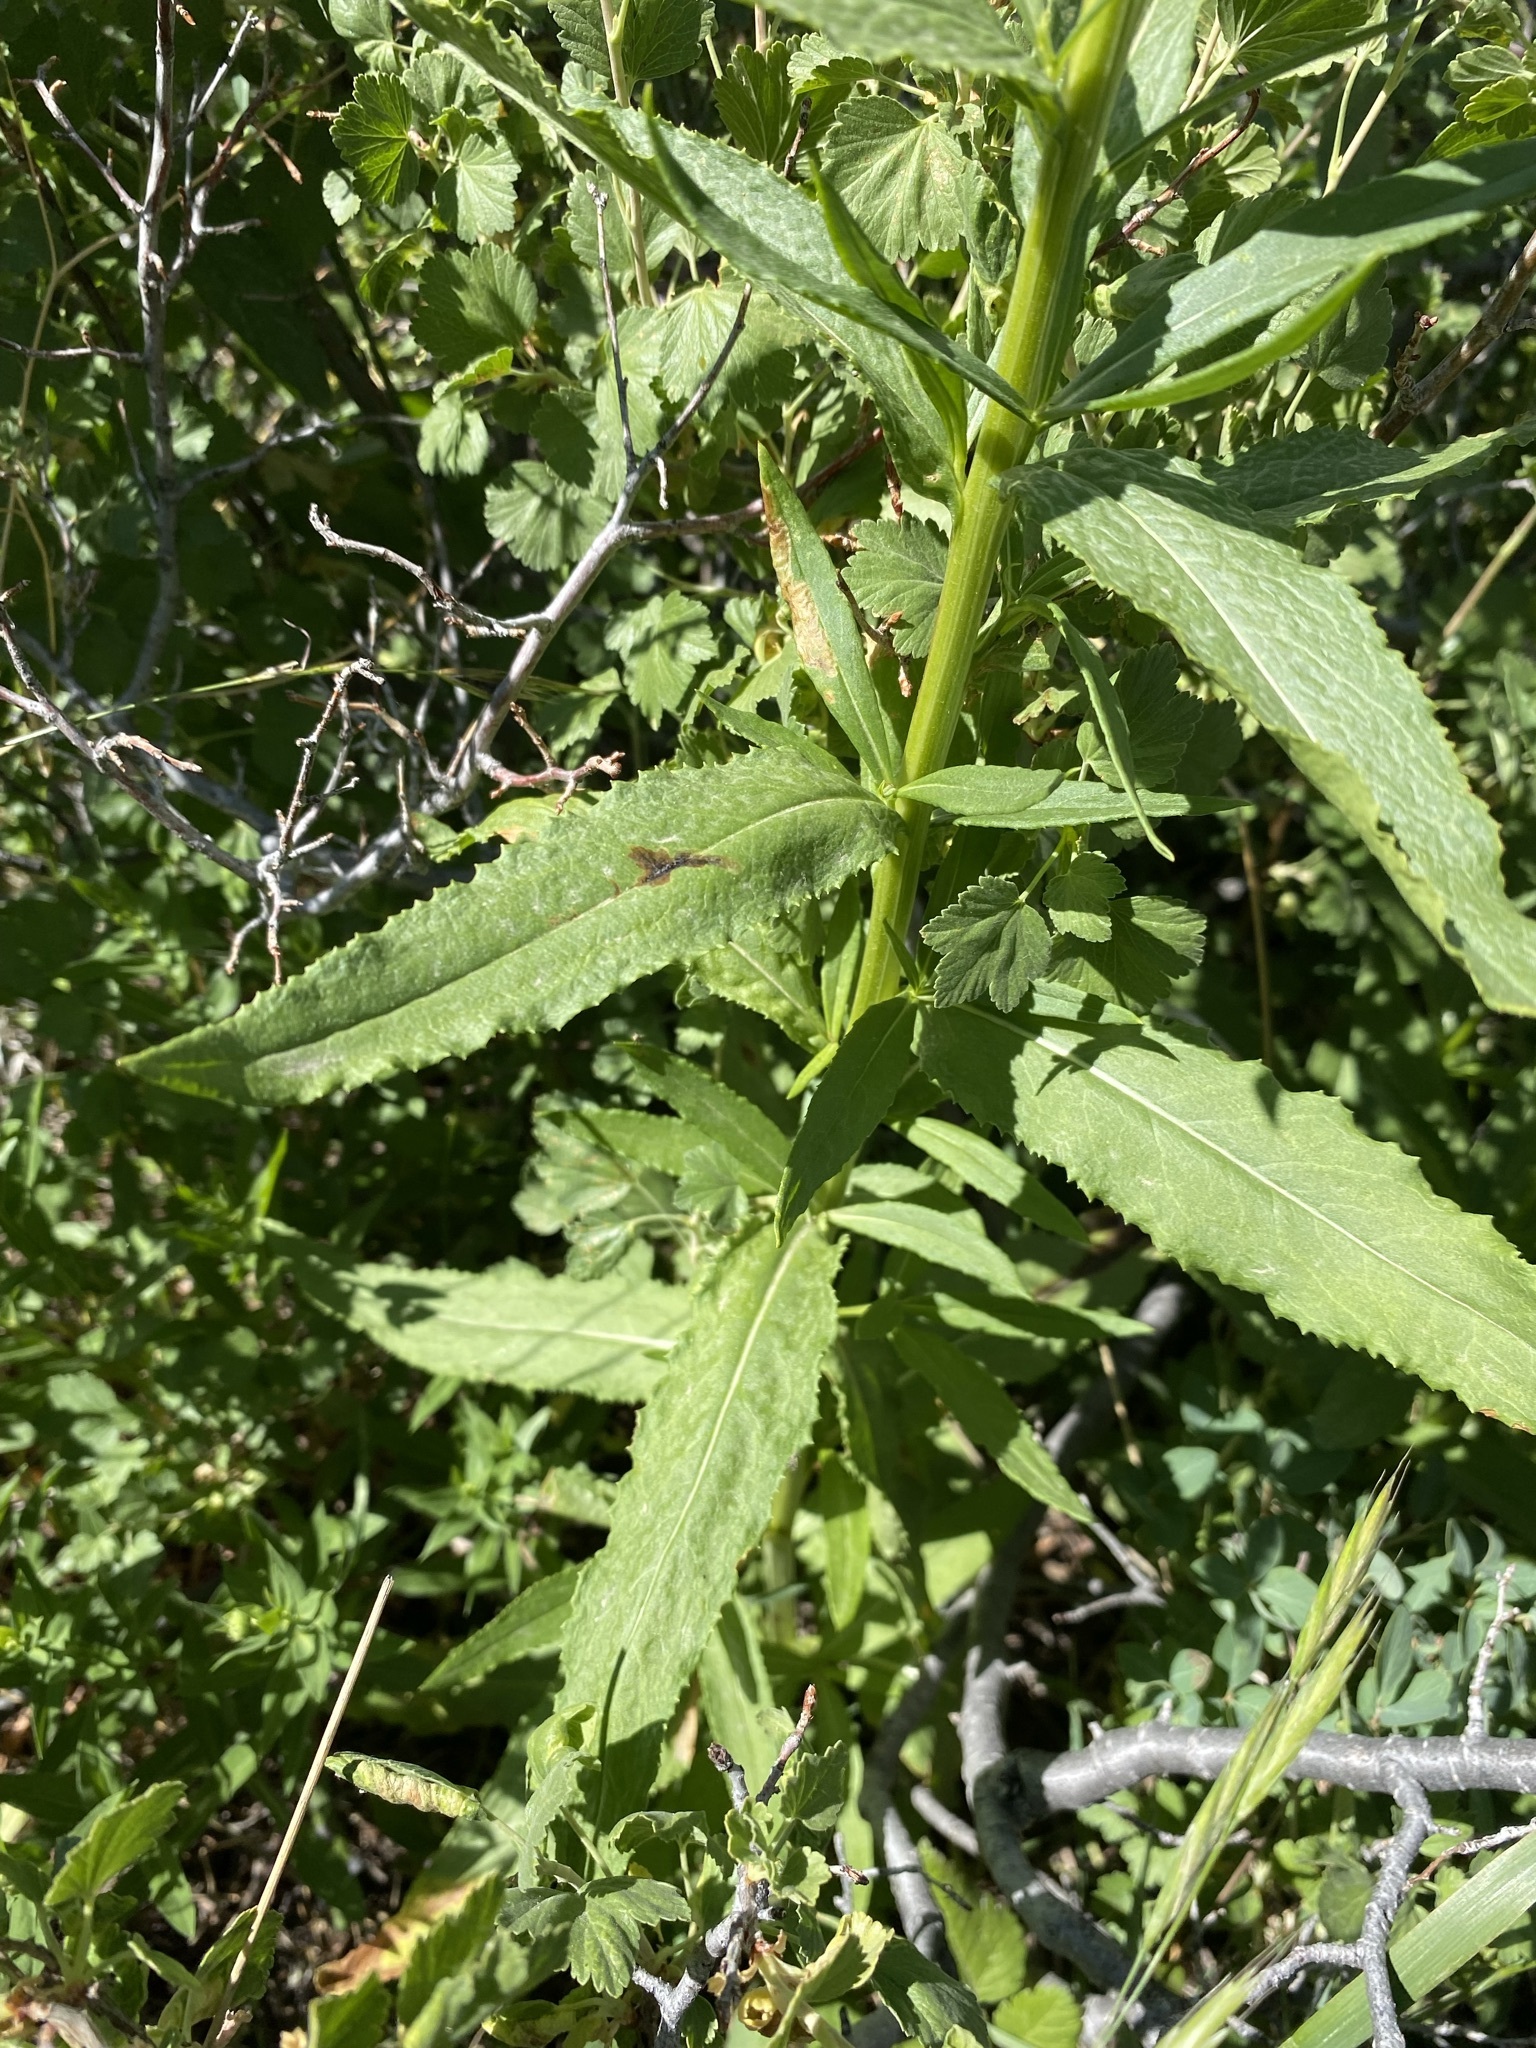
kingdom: Plantae
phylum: Tracheophyta
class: Magnoliopsida
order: Asterales
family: Asteraceae
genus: Senecio
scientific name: Senecio serra
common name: Tall ragwort
